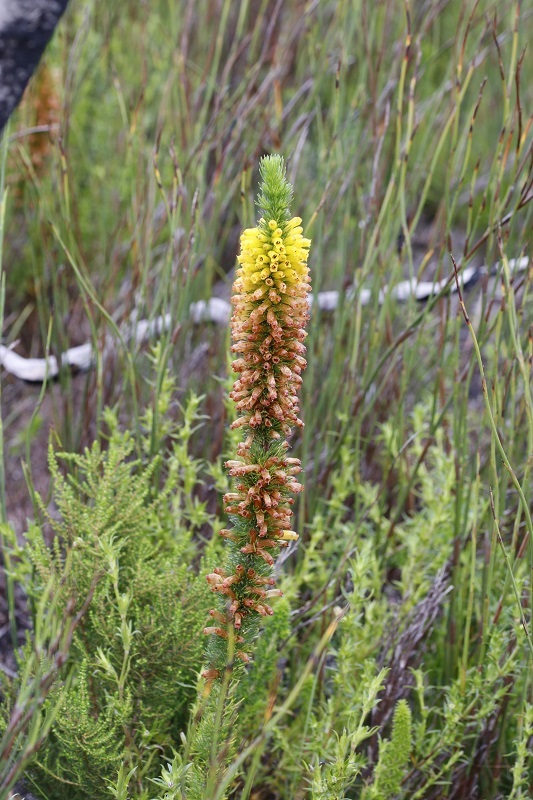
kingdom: Plantae
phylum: Tracheophyta
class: Magnoliopsida
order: Ericales
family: Ericaceae
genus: Erica
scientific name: Erica patersonia
